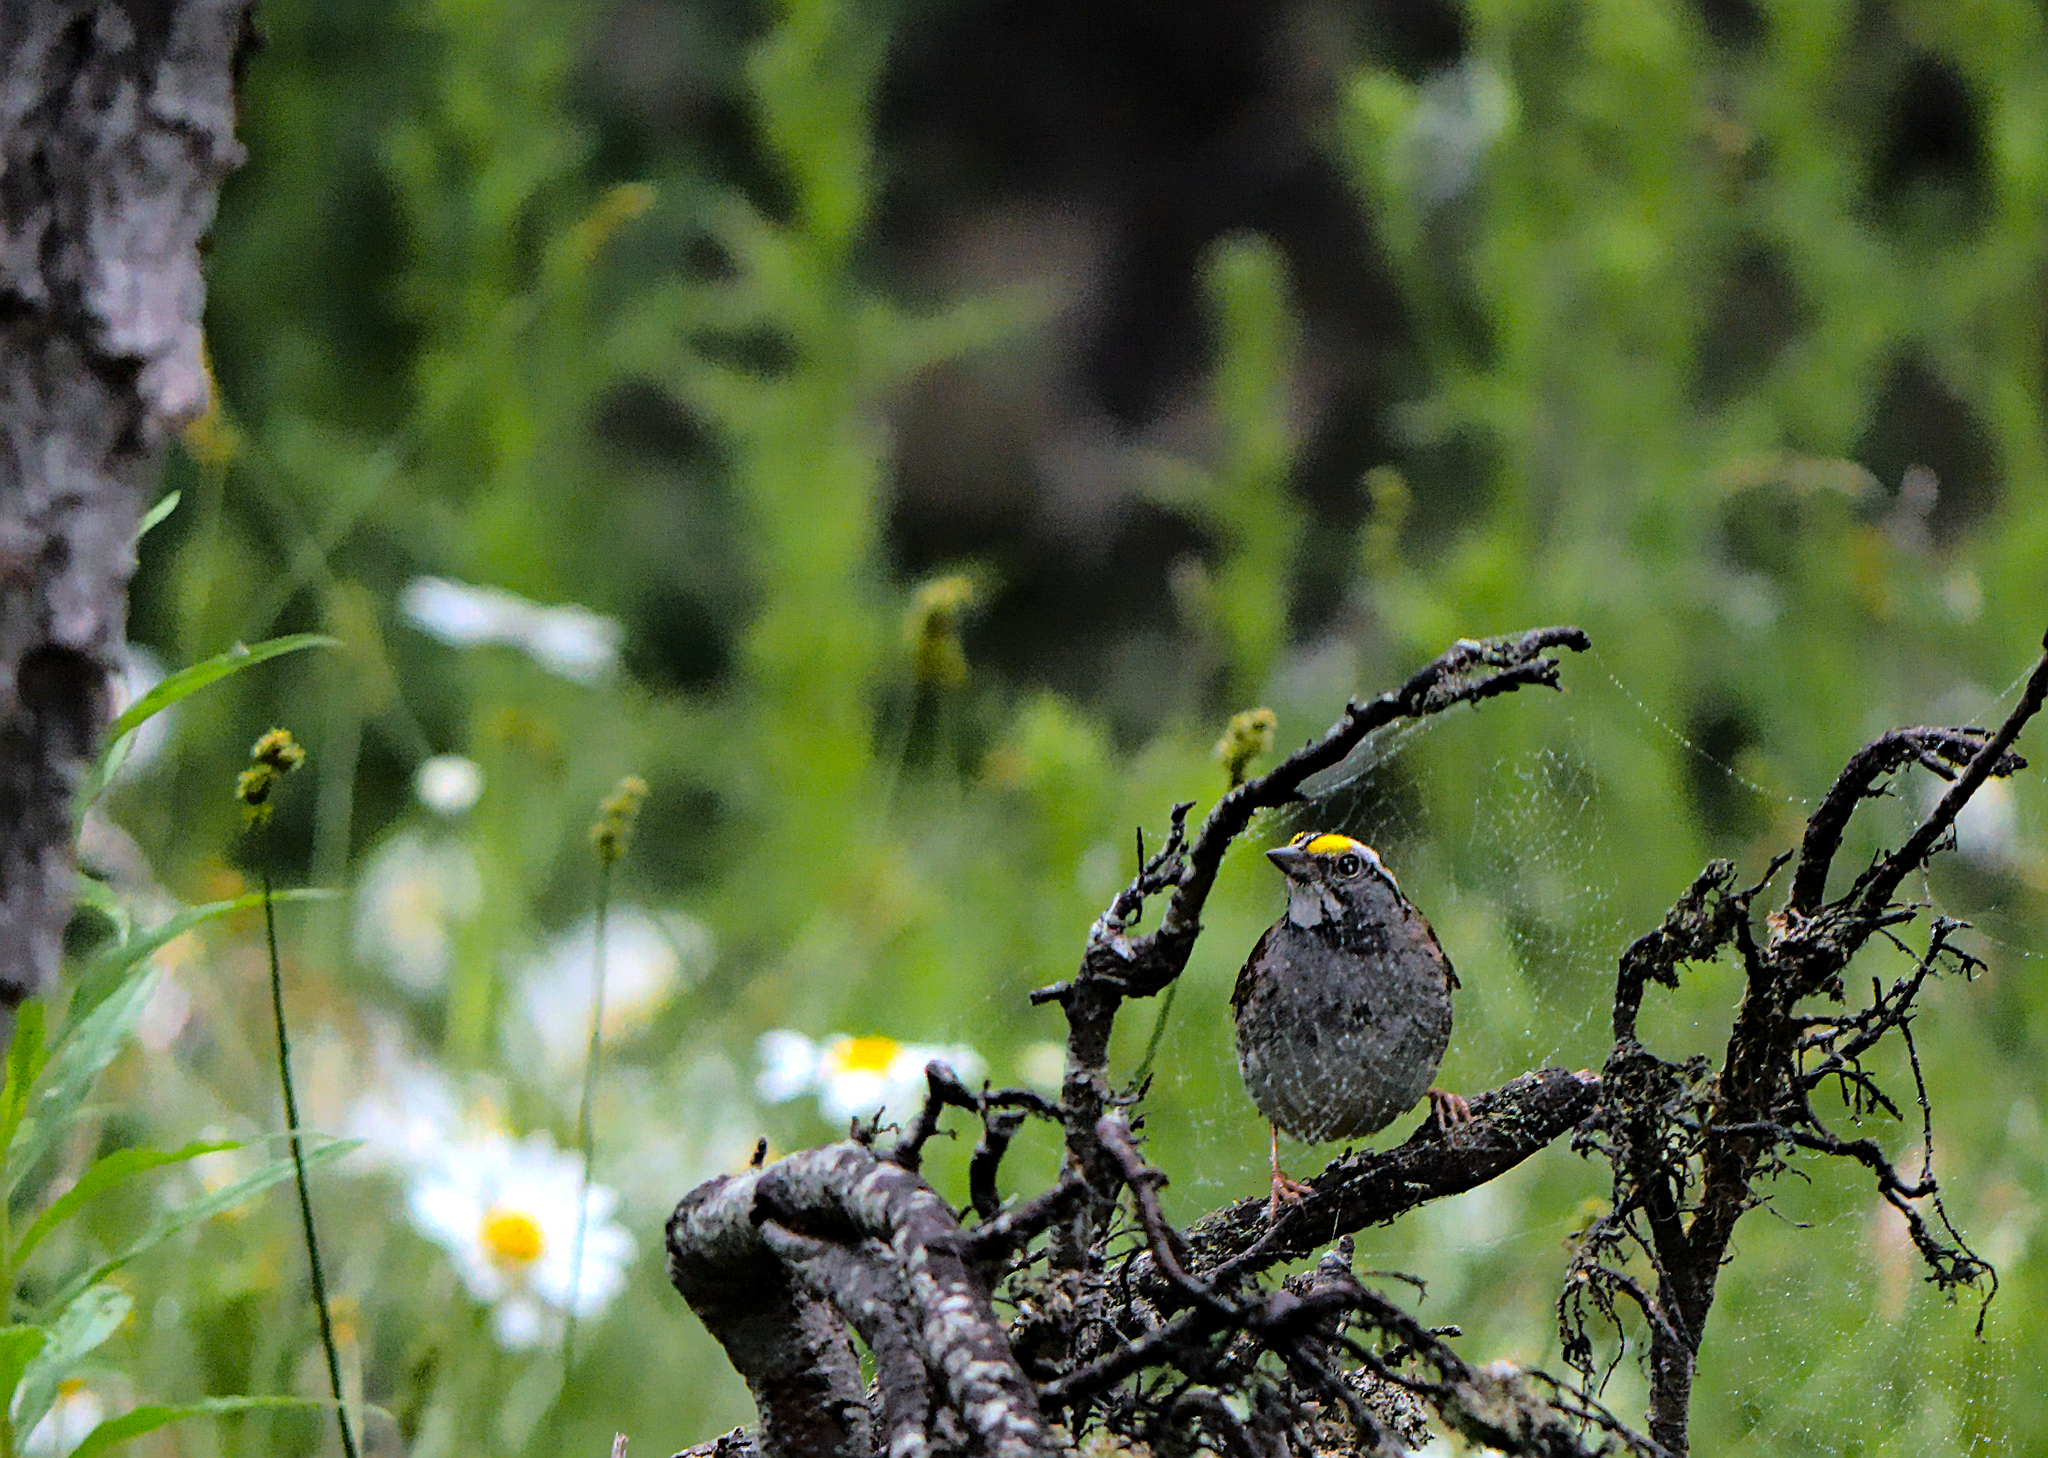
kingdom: Animalia
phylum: Chordata
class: Aves
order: Passeriformes
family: Passerellidae
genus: Zonotrichia
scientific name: Zonotrichia albicollis
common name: White-throated sparrow
